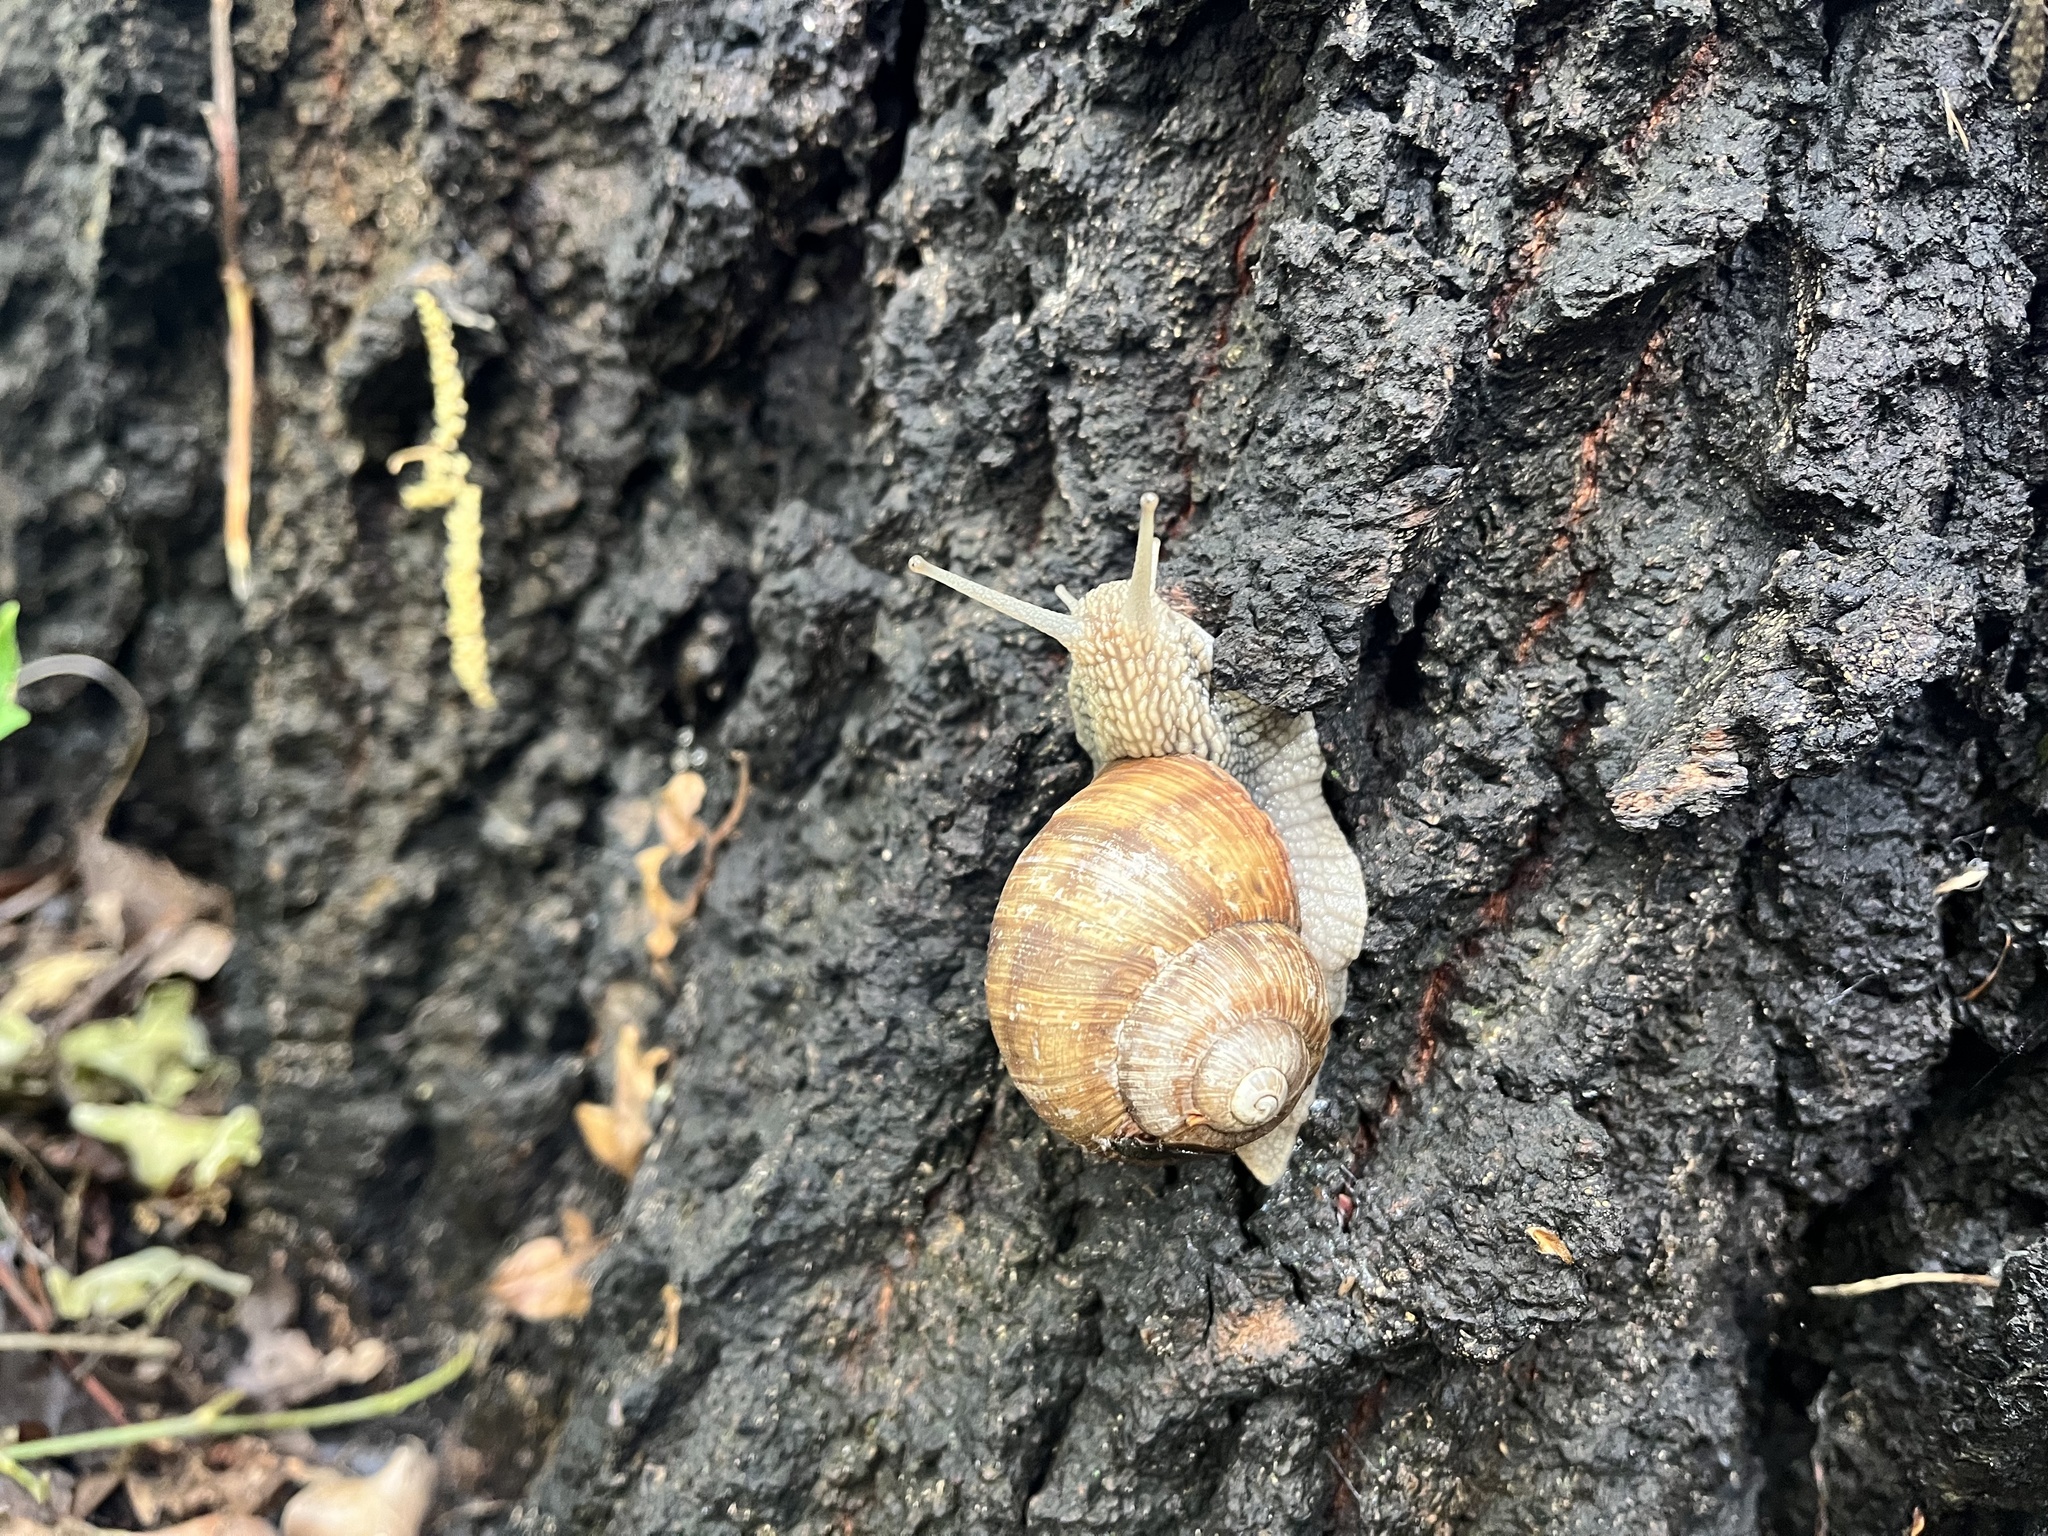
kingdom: Animalia
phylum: Mollusca
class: Gastropoda
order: Stylommatophora
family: Helicidae
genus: Helix
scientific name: Helix pomatia
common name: Roman snail
